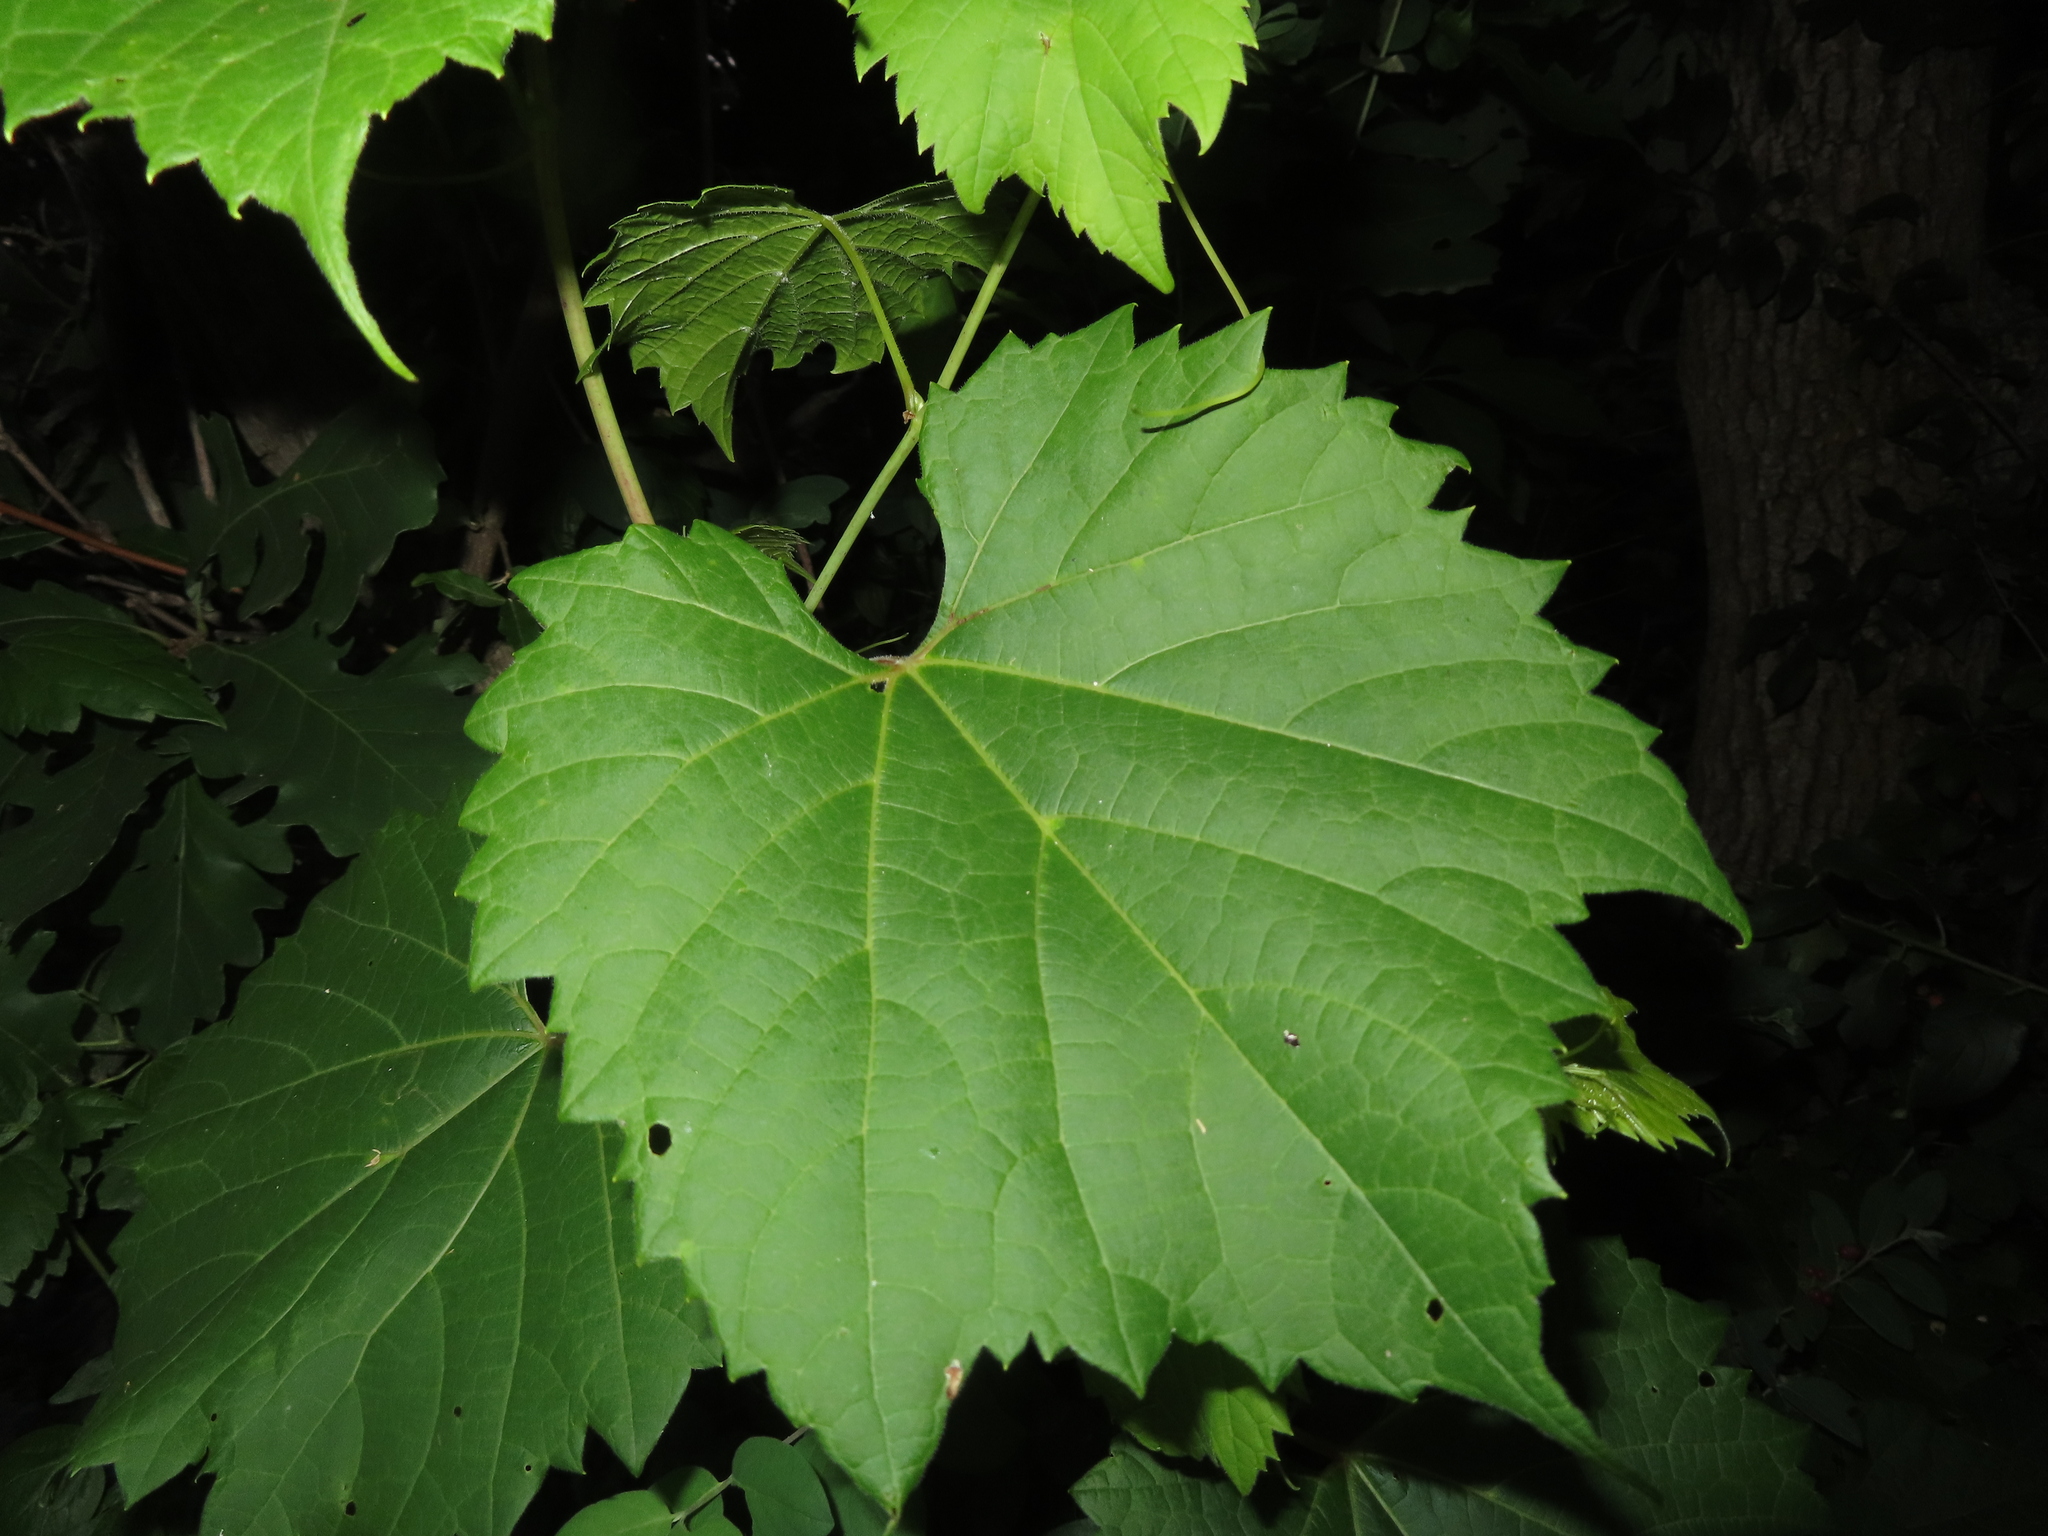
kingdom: Plantae
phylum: Tracheophyta
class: Magnoliopsida
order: Vitales
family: Vitaceae
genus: Vitis
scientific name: Vitis riparia
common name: Frost grape
